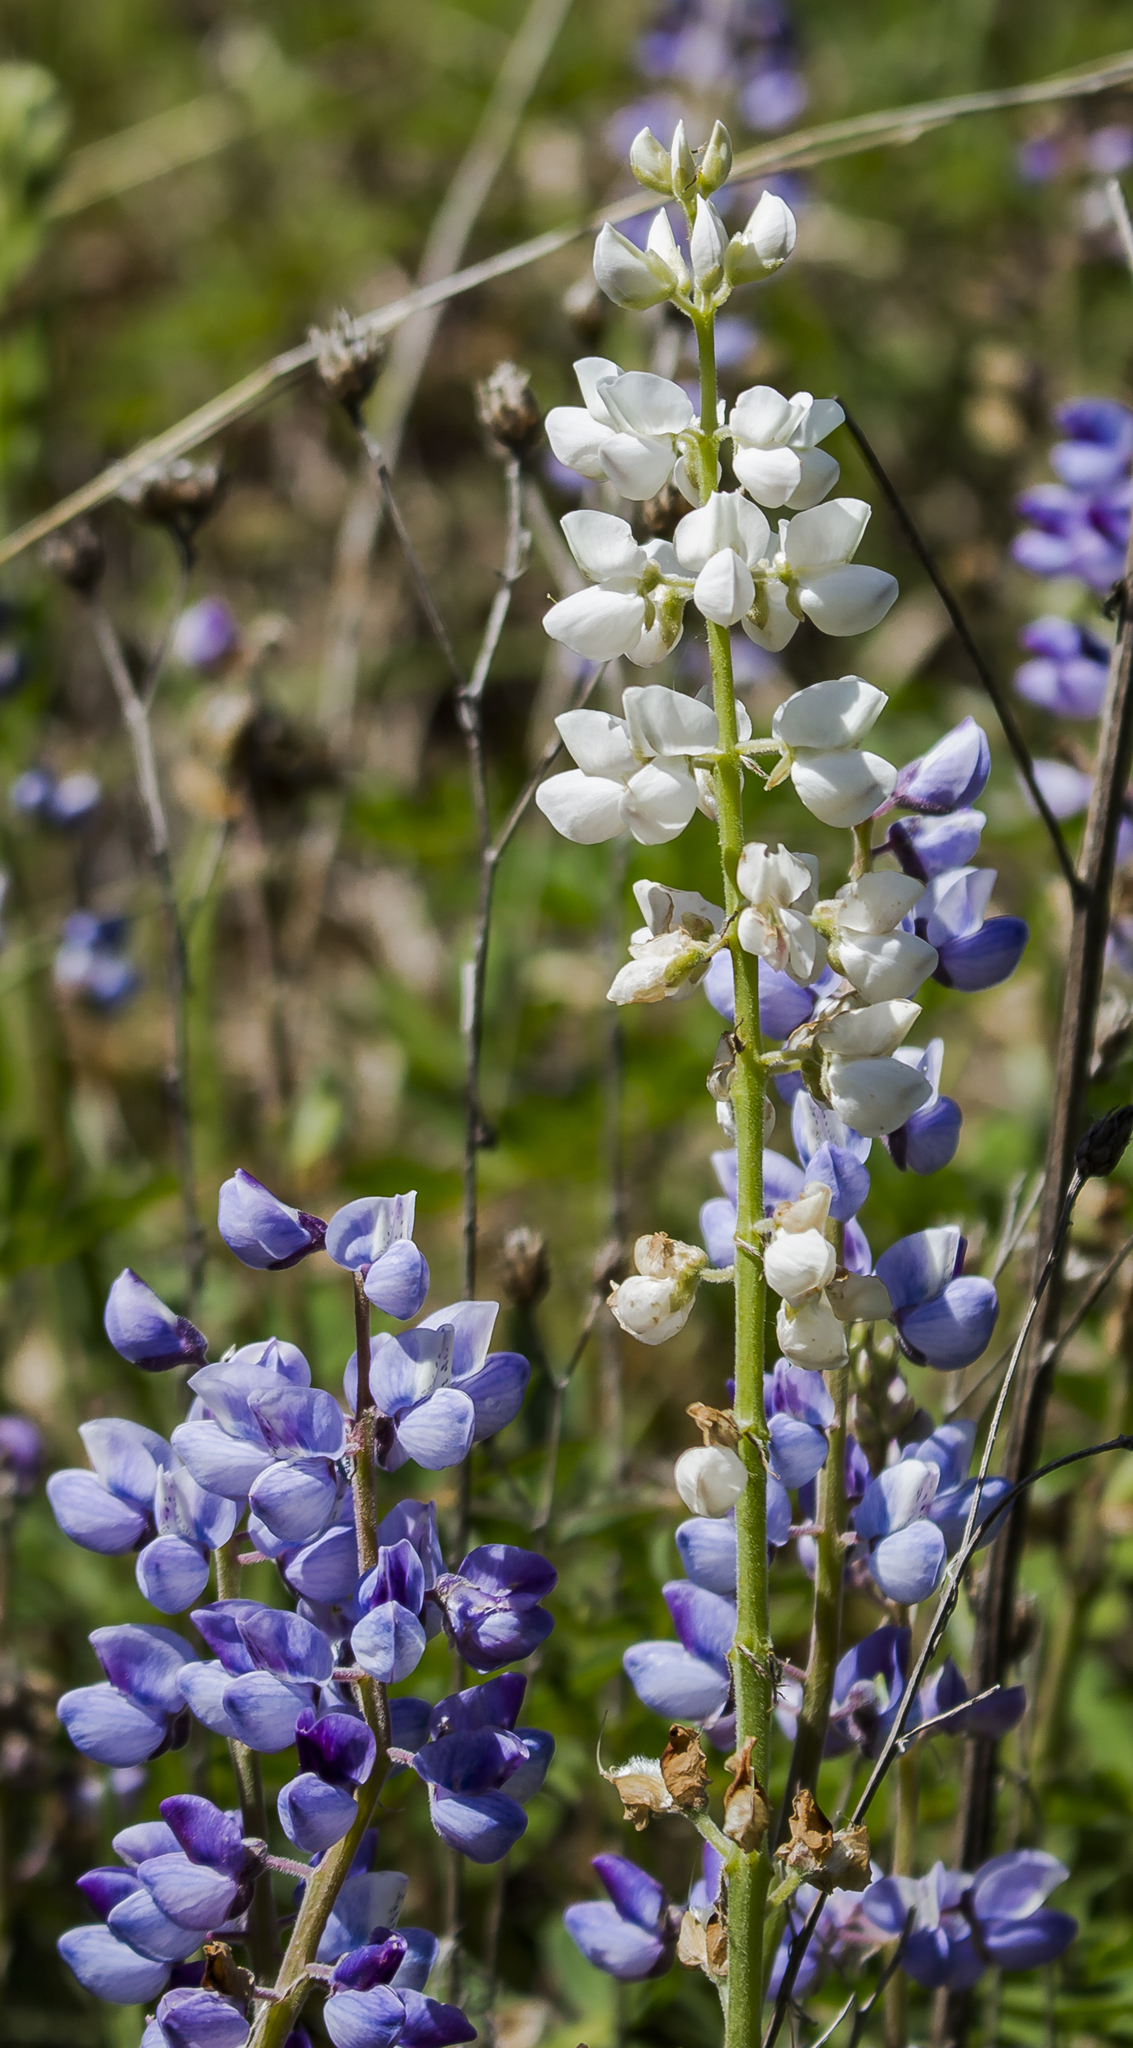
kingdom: Plantae
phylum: Tracheophyta
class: Magnoliopsida
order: Fabales
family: Fabaceae
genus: Lupinus
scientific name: Lupinus perennis
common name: Sundial lupine
